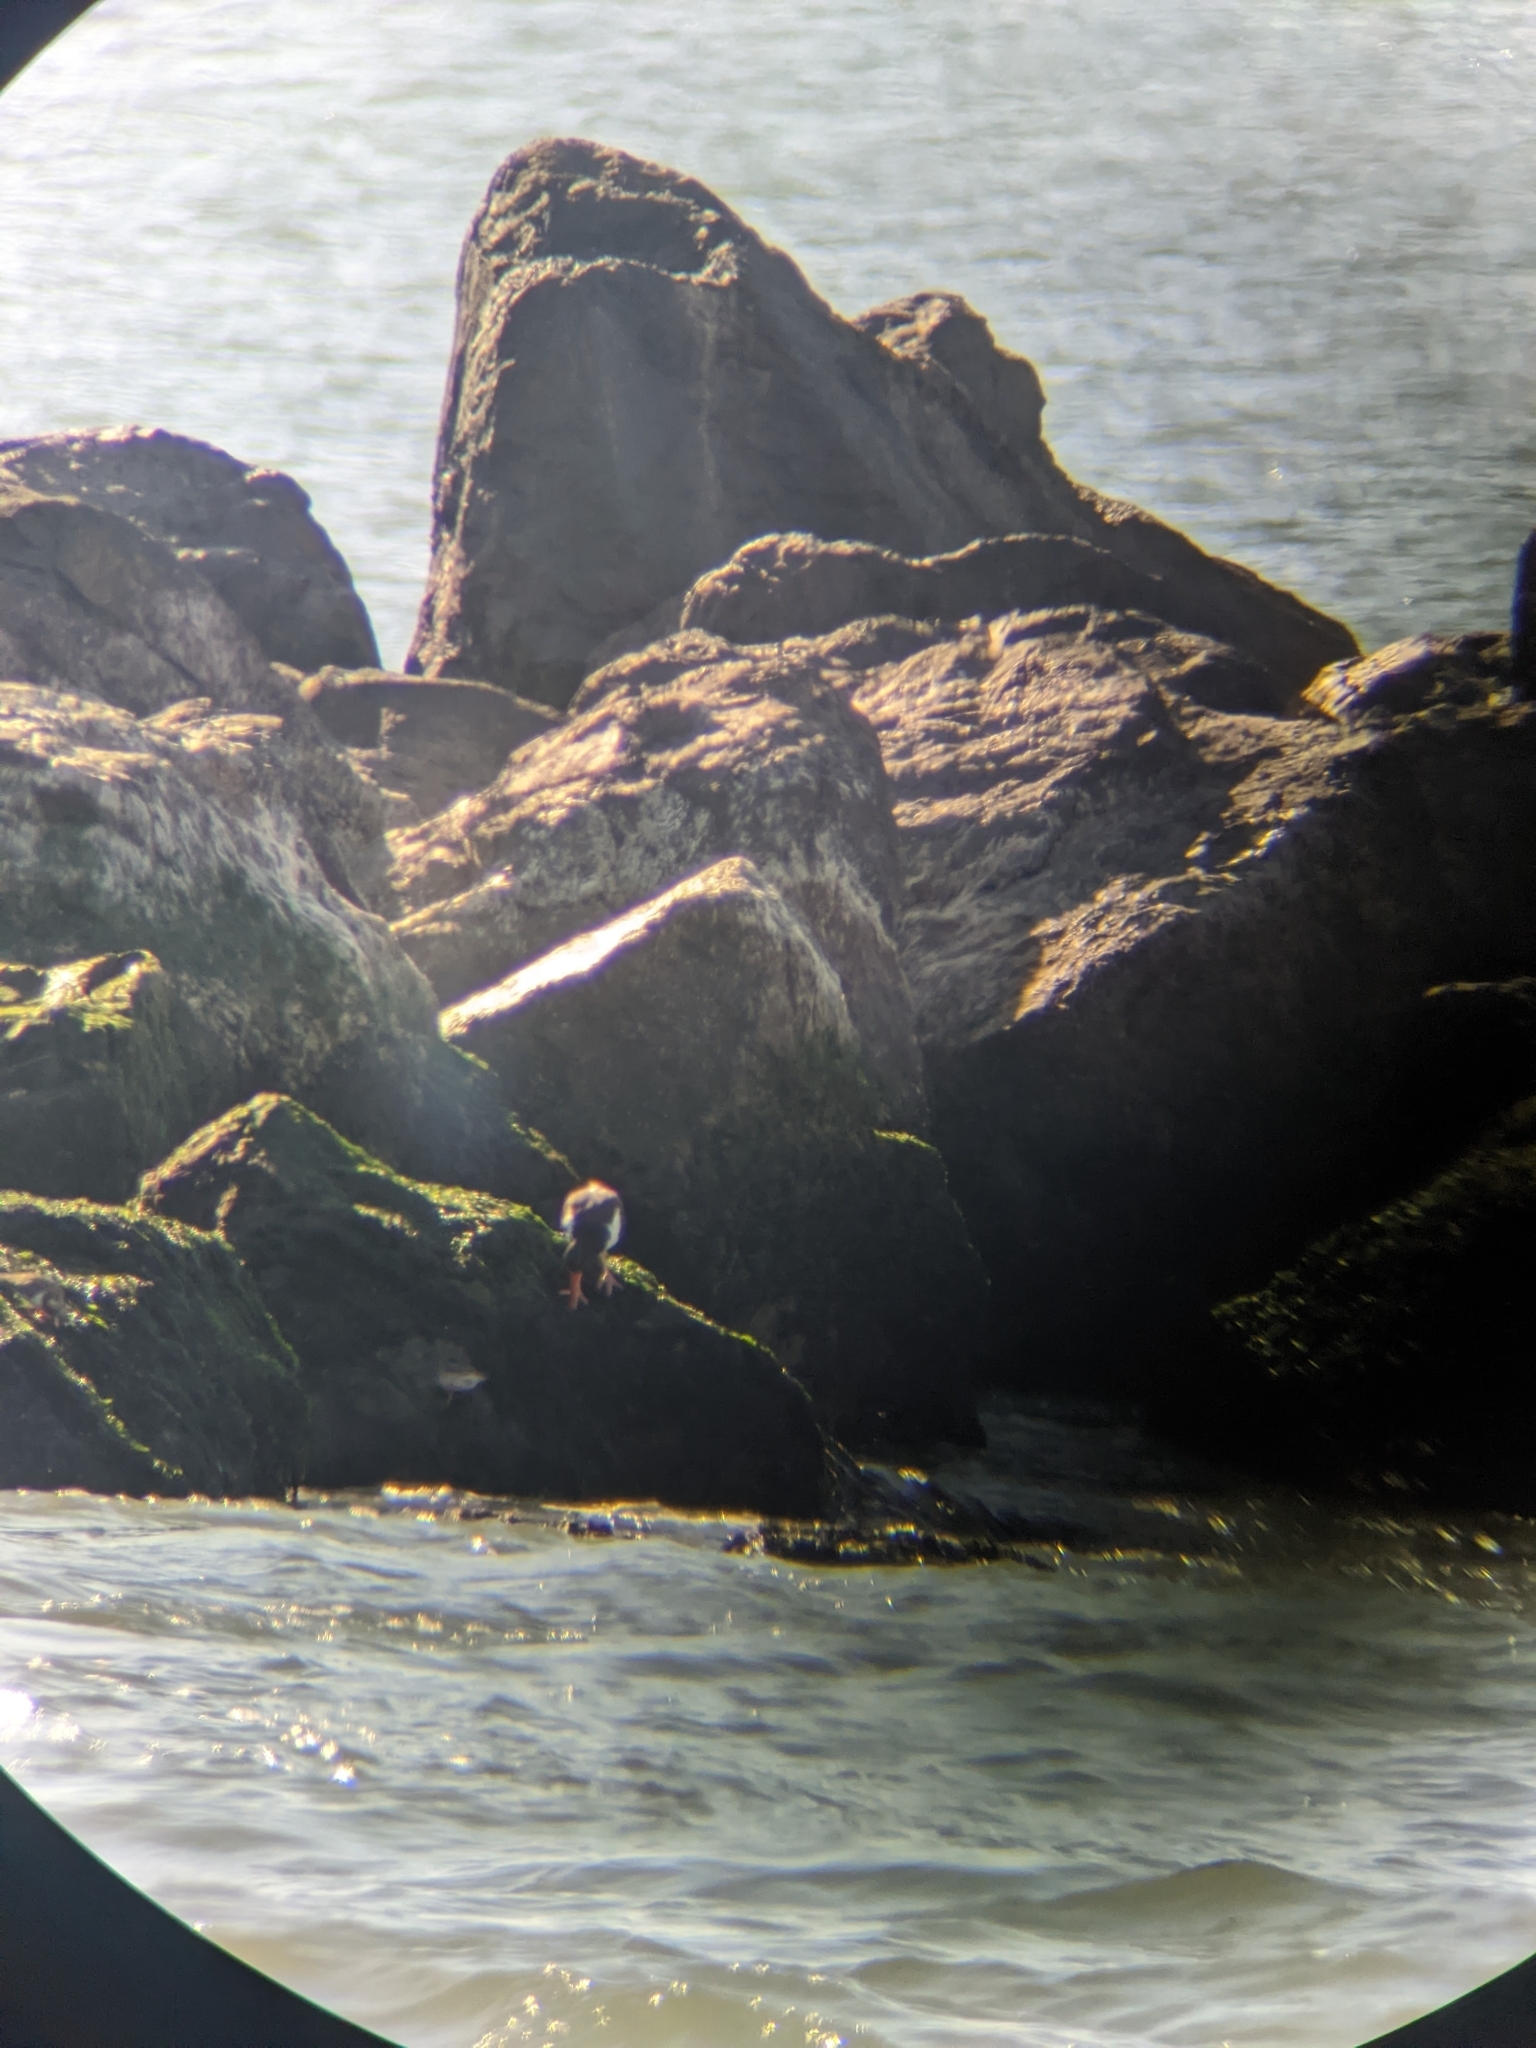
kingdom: Animalia
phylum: Chordata
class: Aves
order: Charadriiformes
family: Haematopodidae
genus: Haematopus
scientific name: Haematopus palliatus
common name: American oystercatcher
